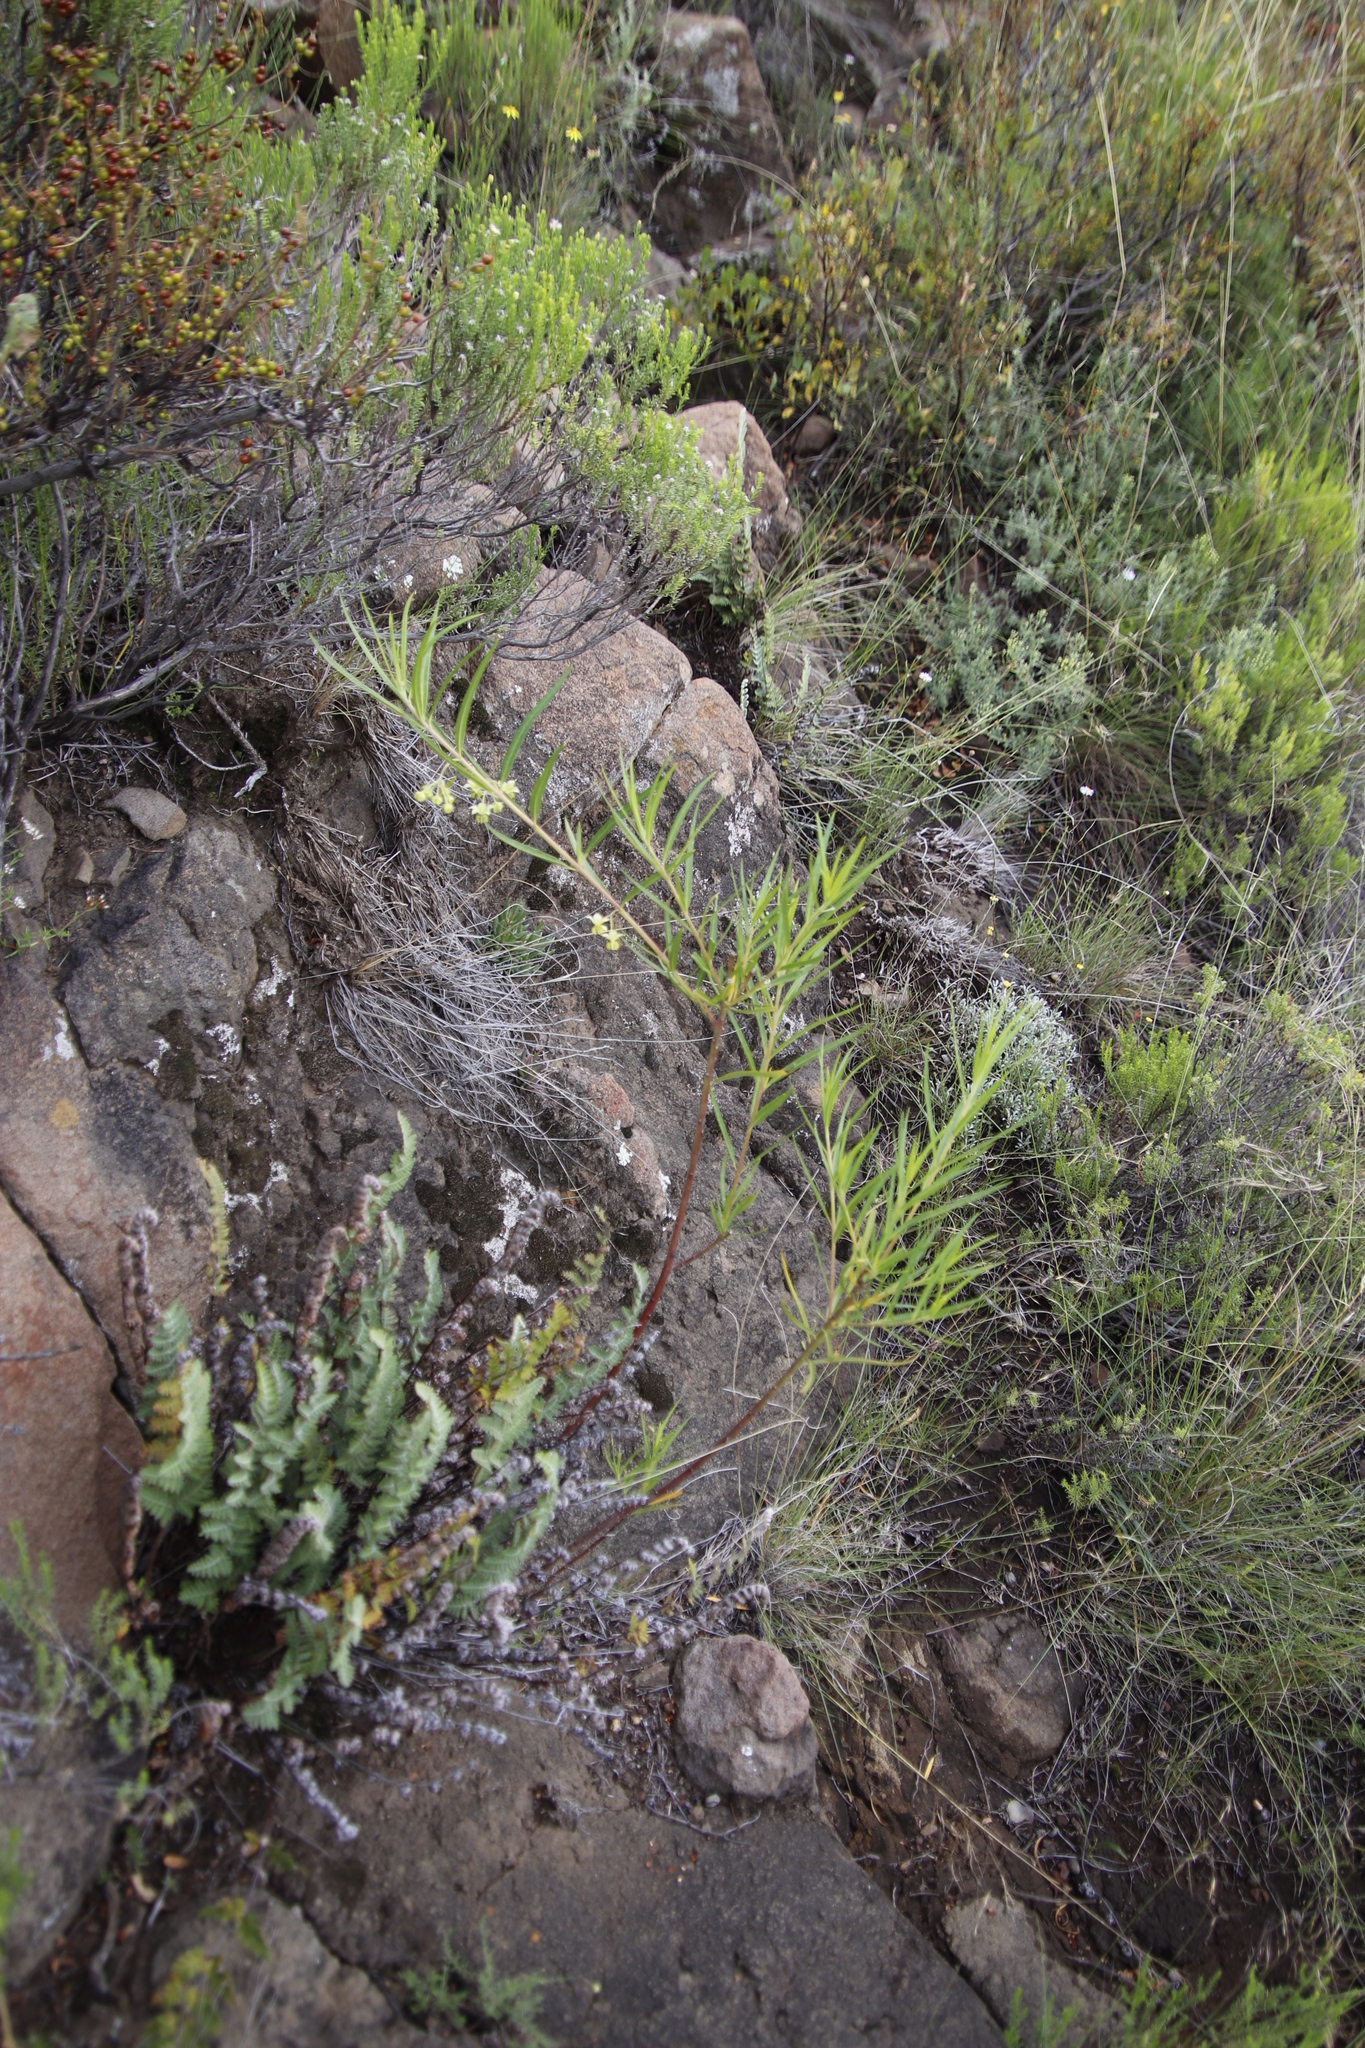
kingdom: Plantae
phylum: Tracheophyta
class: Magnoliopsida
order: Gentianales
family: Apocynaceae
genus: Gomphocarpus
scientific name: Gomphocarpus fruticosus
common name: Milkweed
